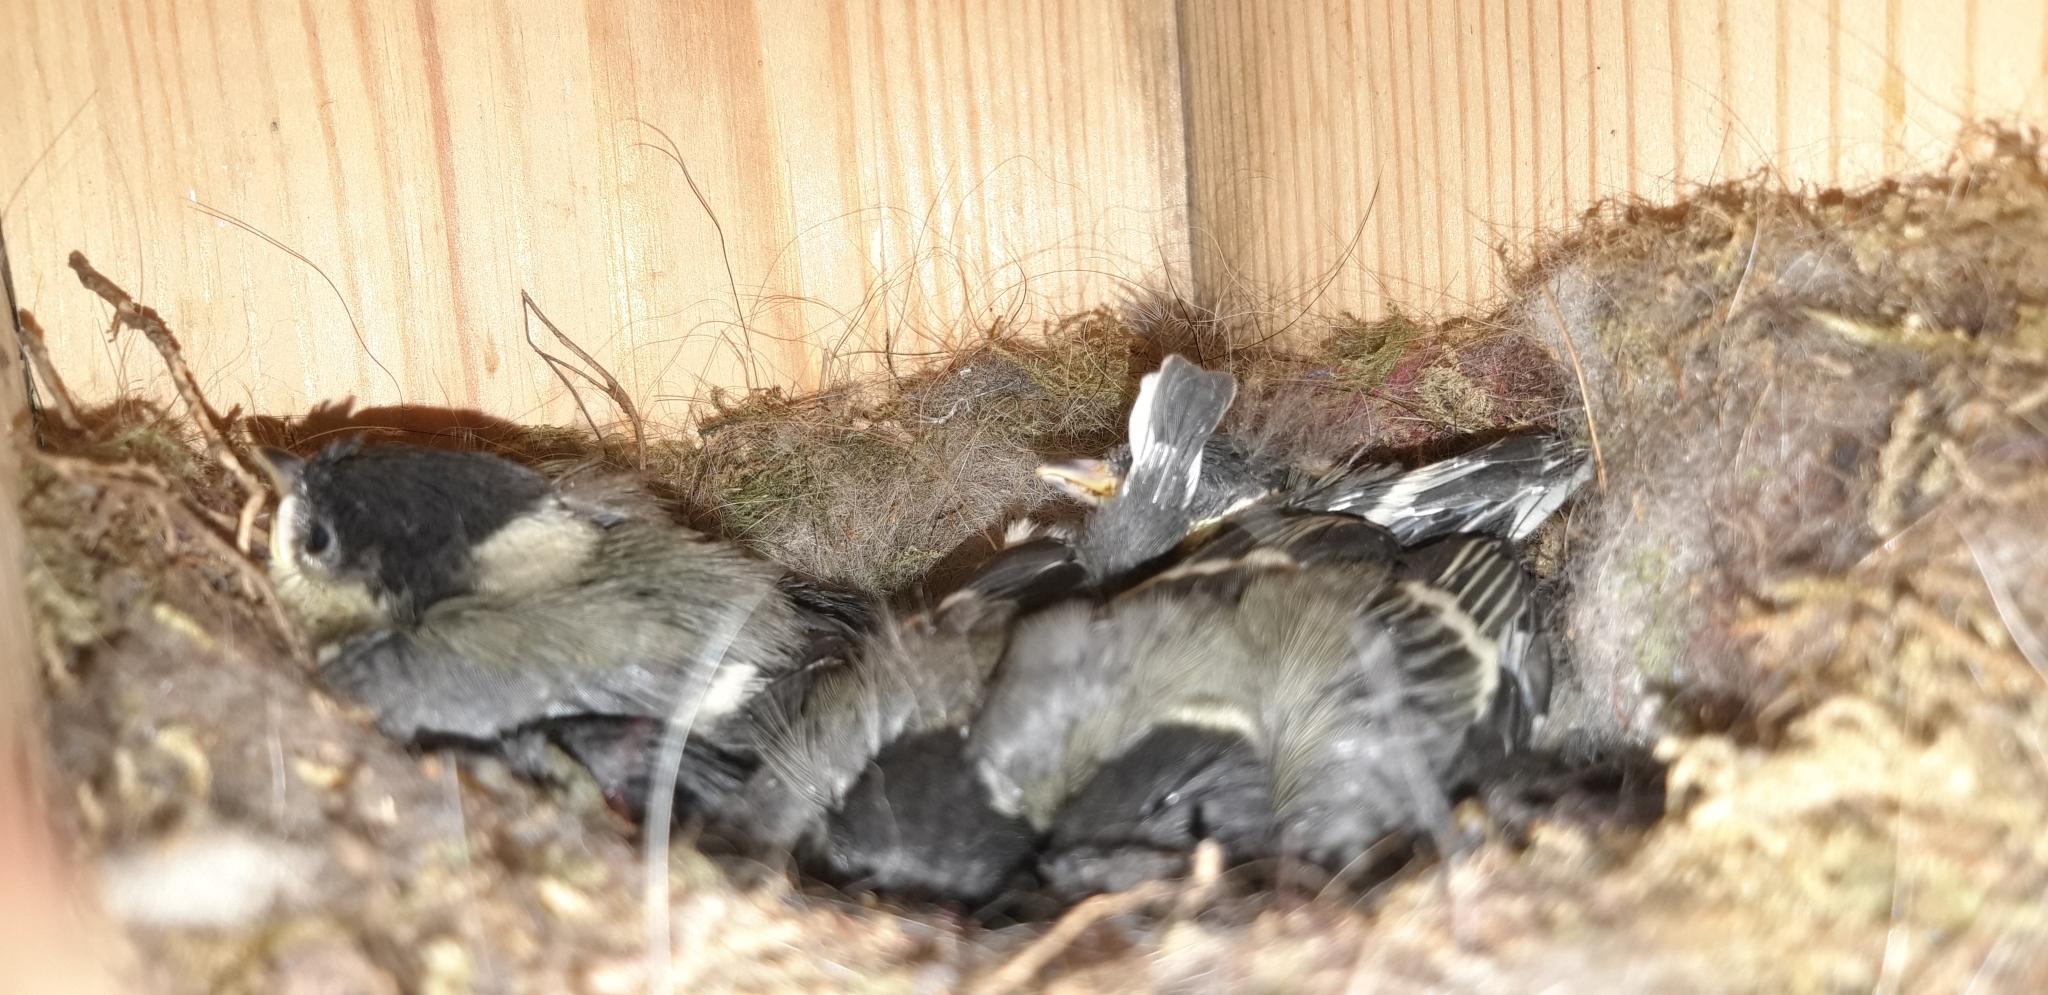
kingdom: Animalia
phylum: Chordata
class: Aves
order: Passeriformes
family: Paridae
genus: Parus
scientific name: Parus major
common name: Great tit
